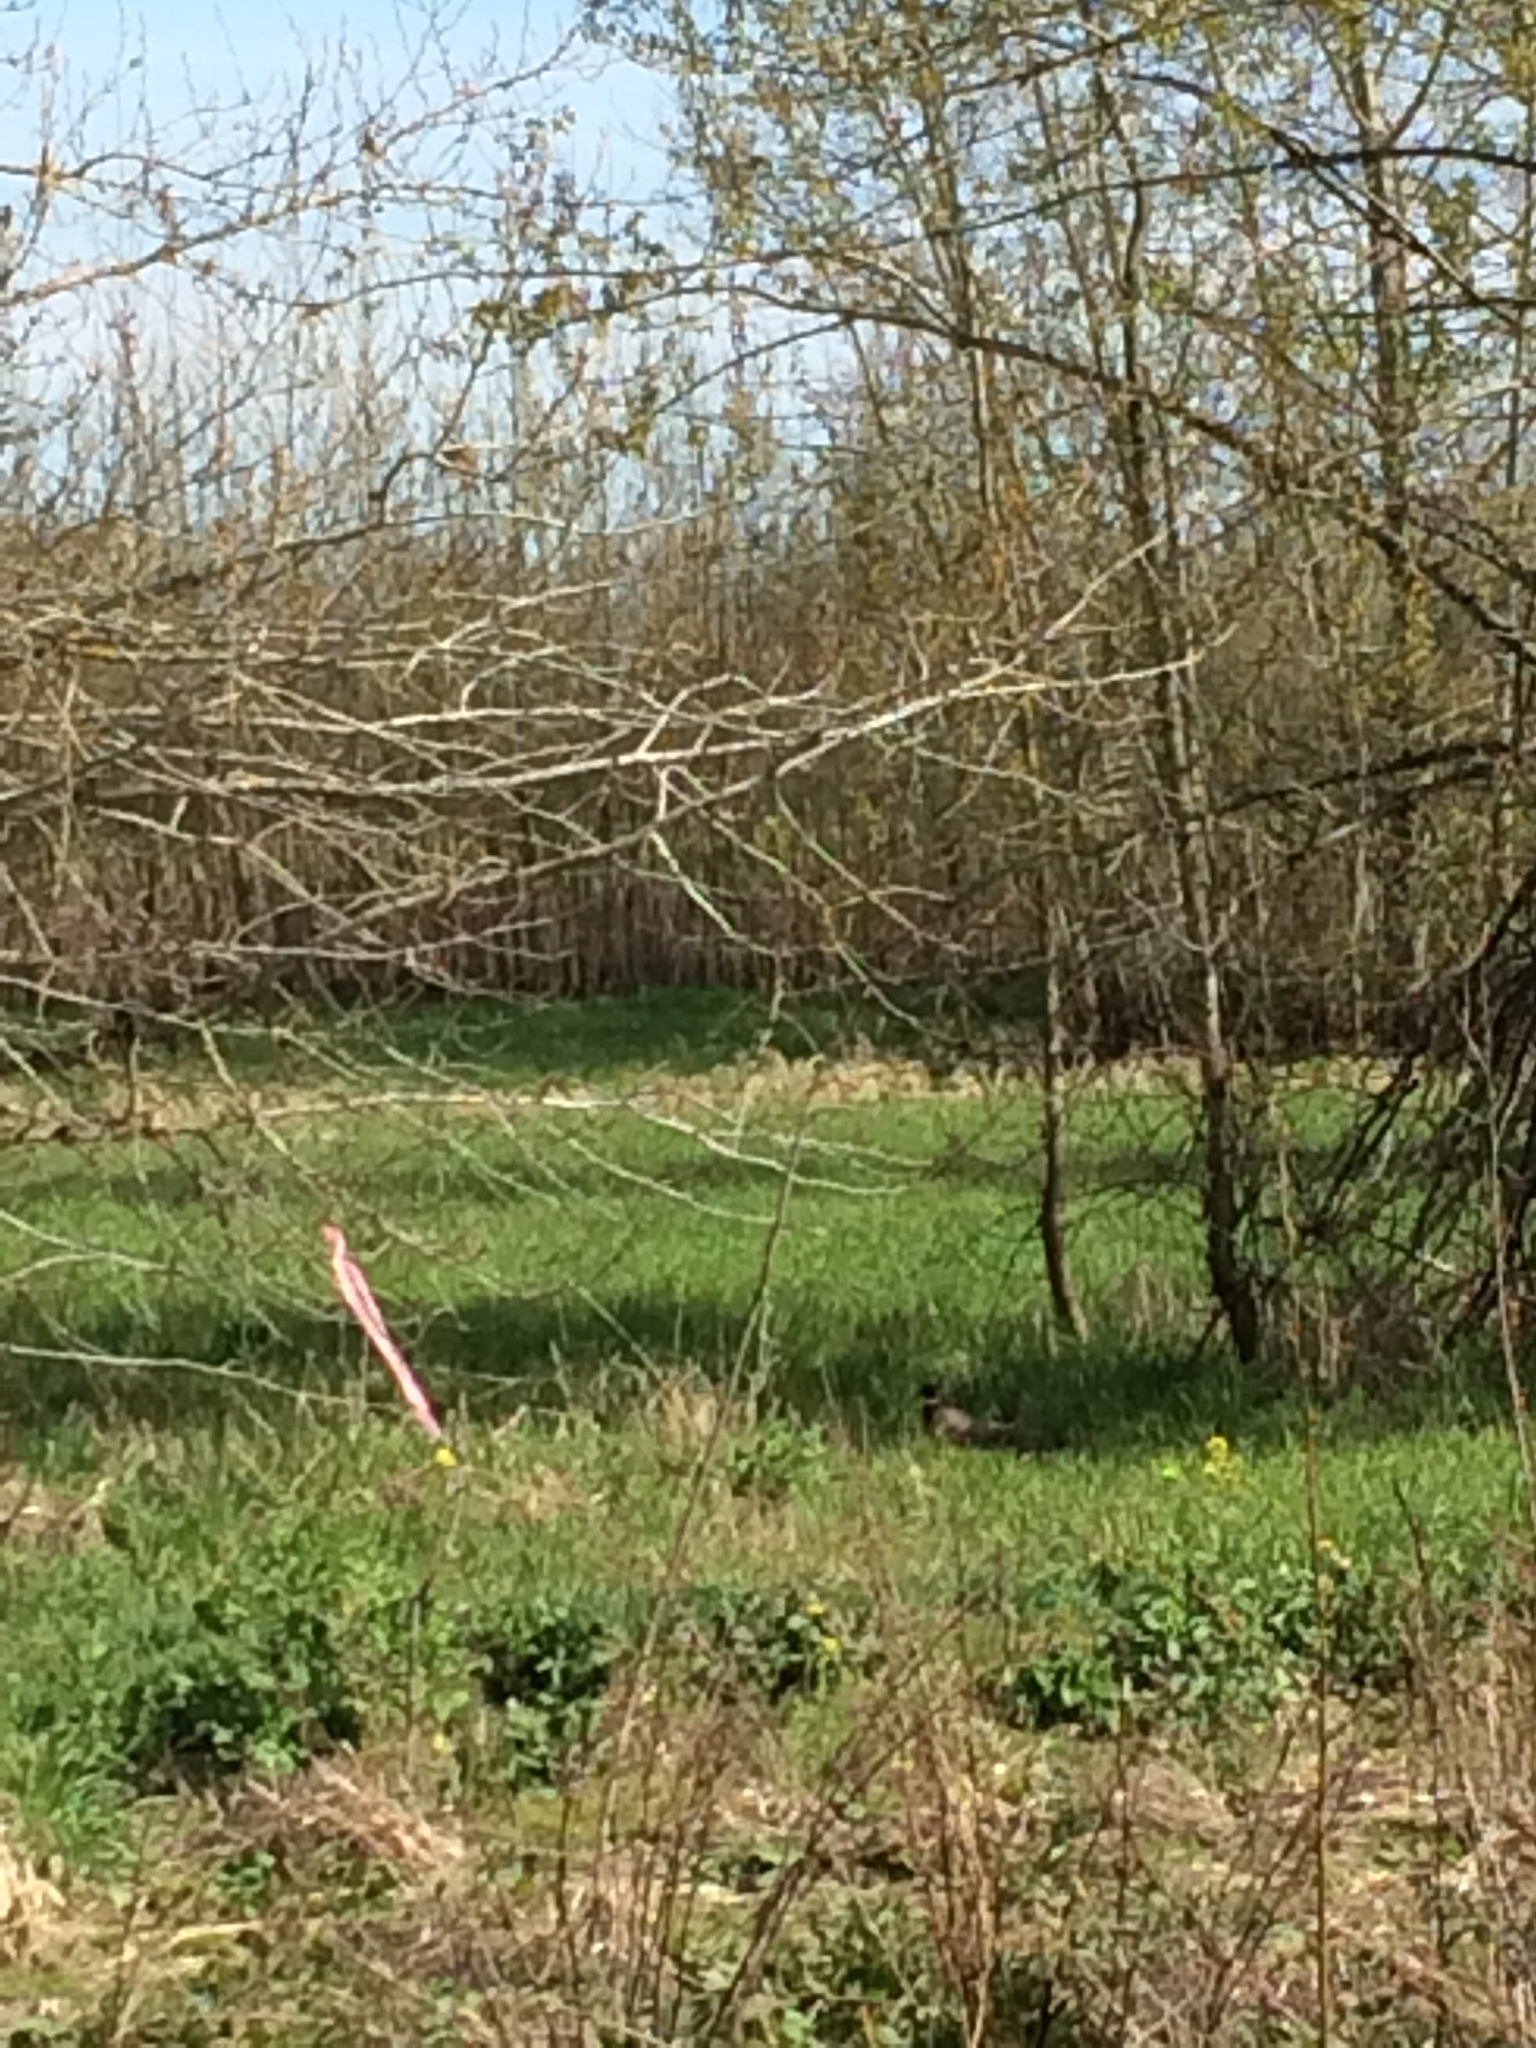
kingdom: Animalia
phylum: Chordata
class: Aves
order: Galliformes
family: Phasianidae
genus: Phasianus
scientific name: Phasianus colchicus
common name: Common pheasant
